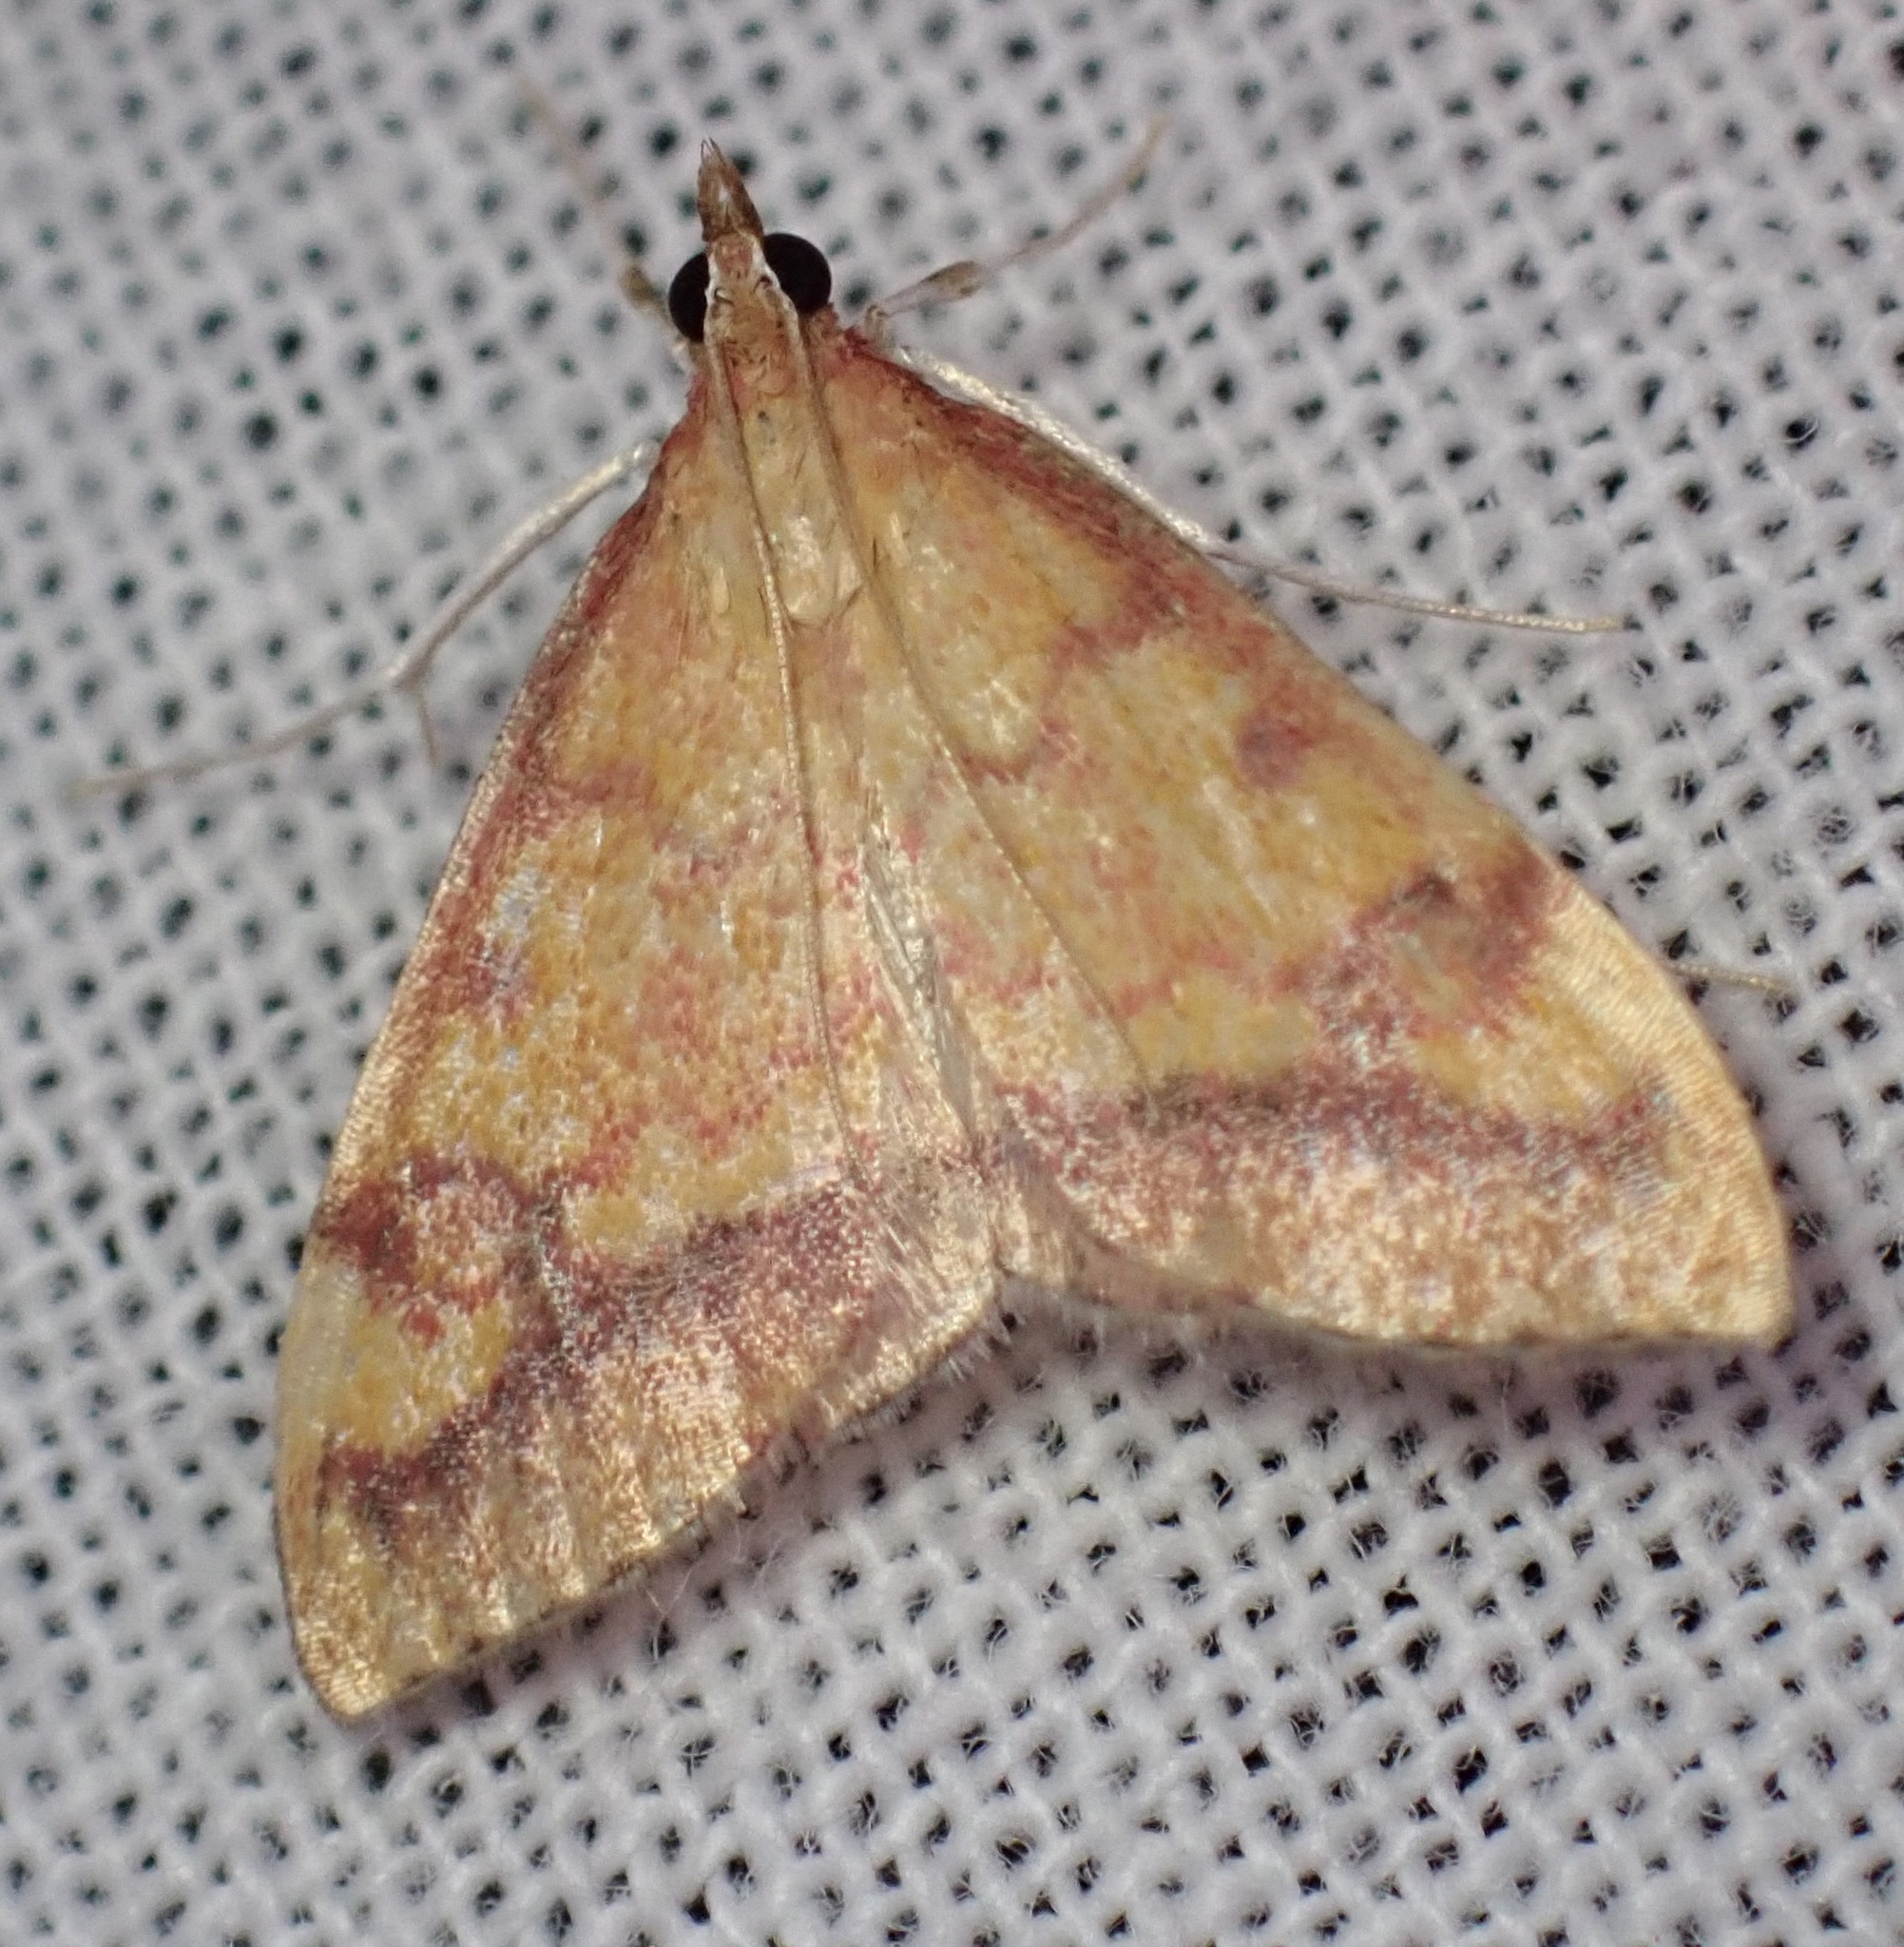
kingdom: Animalia
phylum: Arthropoda
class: Insecta
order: Lepidoptera
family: Crambidae
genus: Pyrausta
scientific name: Pyrausta perrubralis
